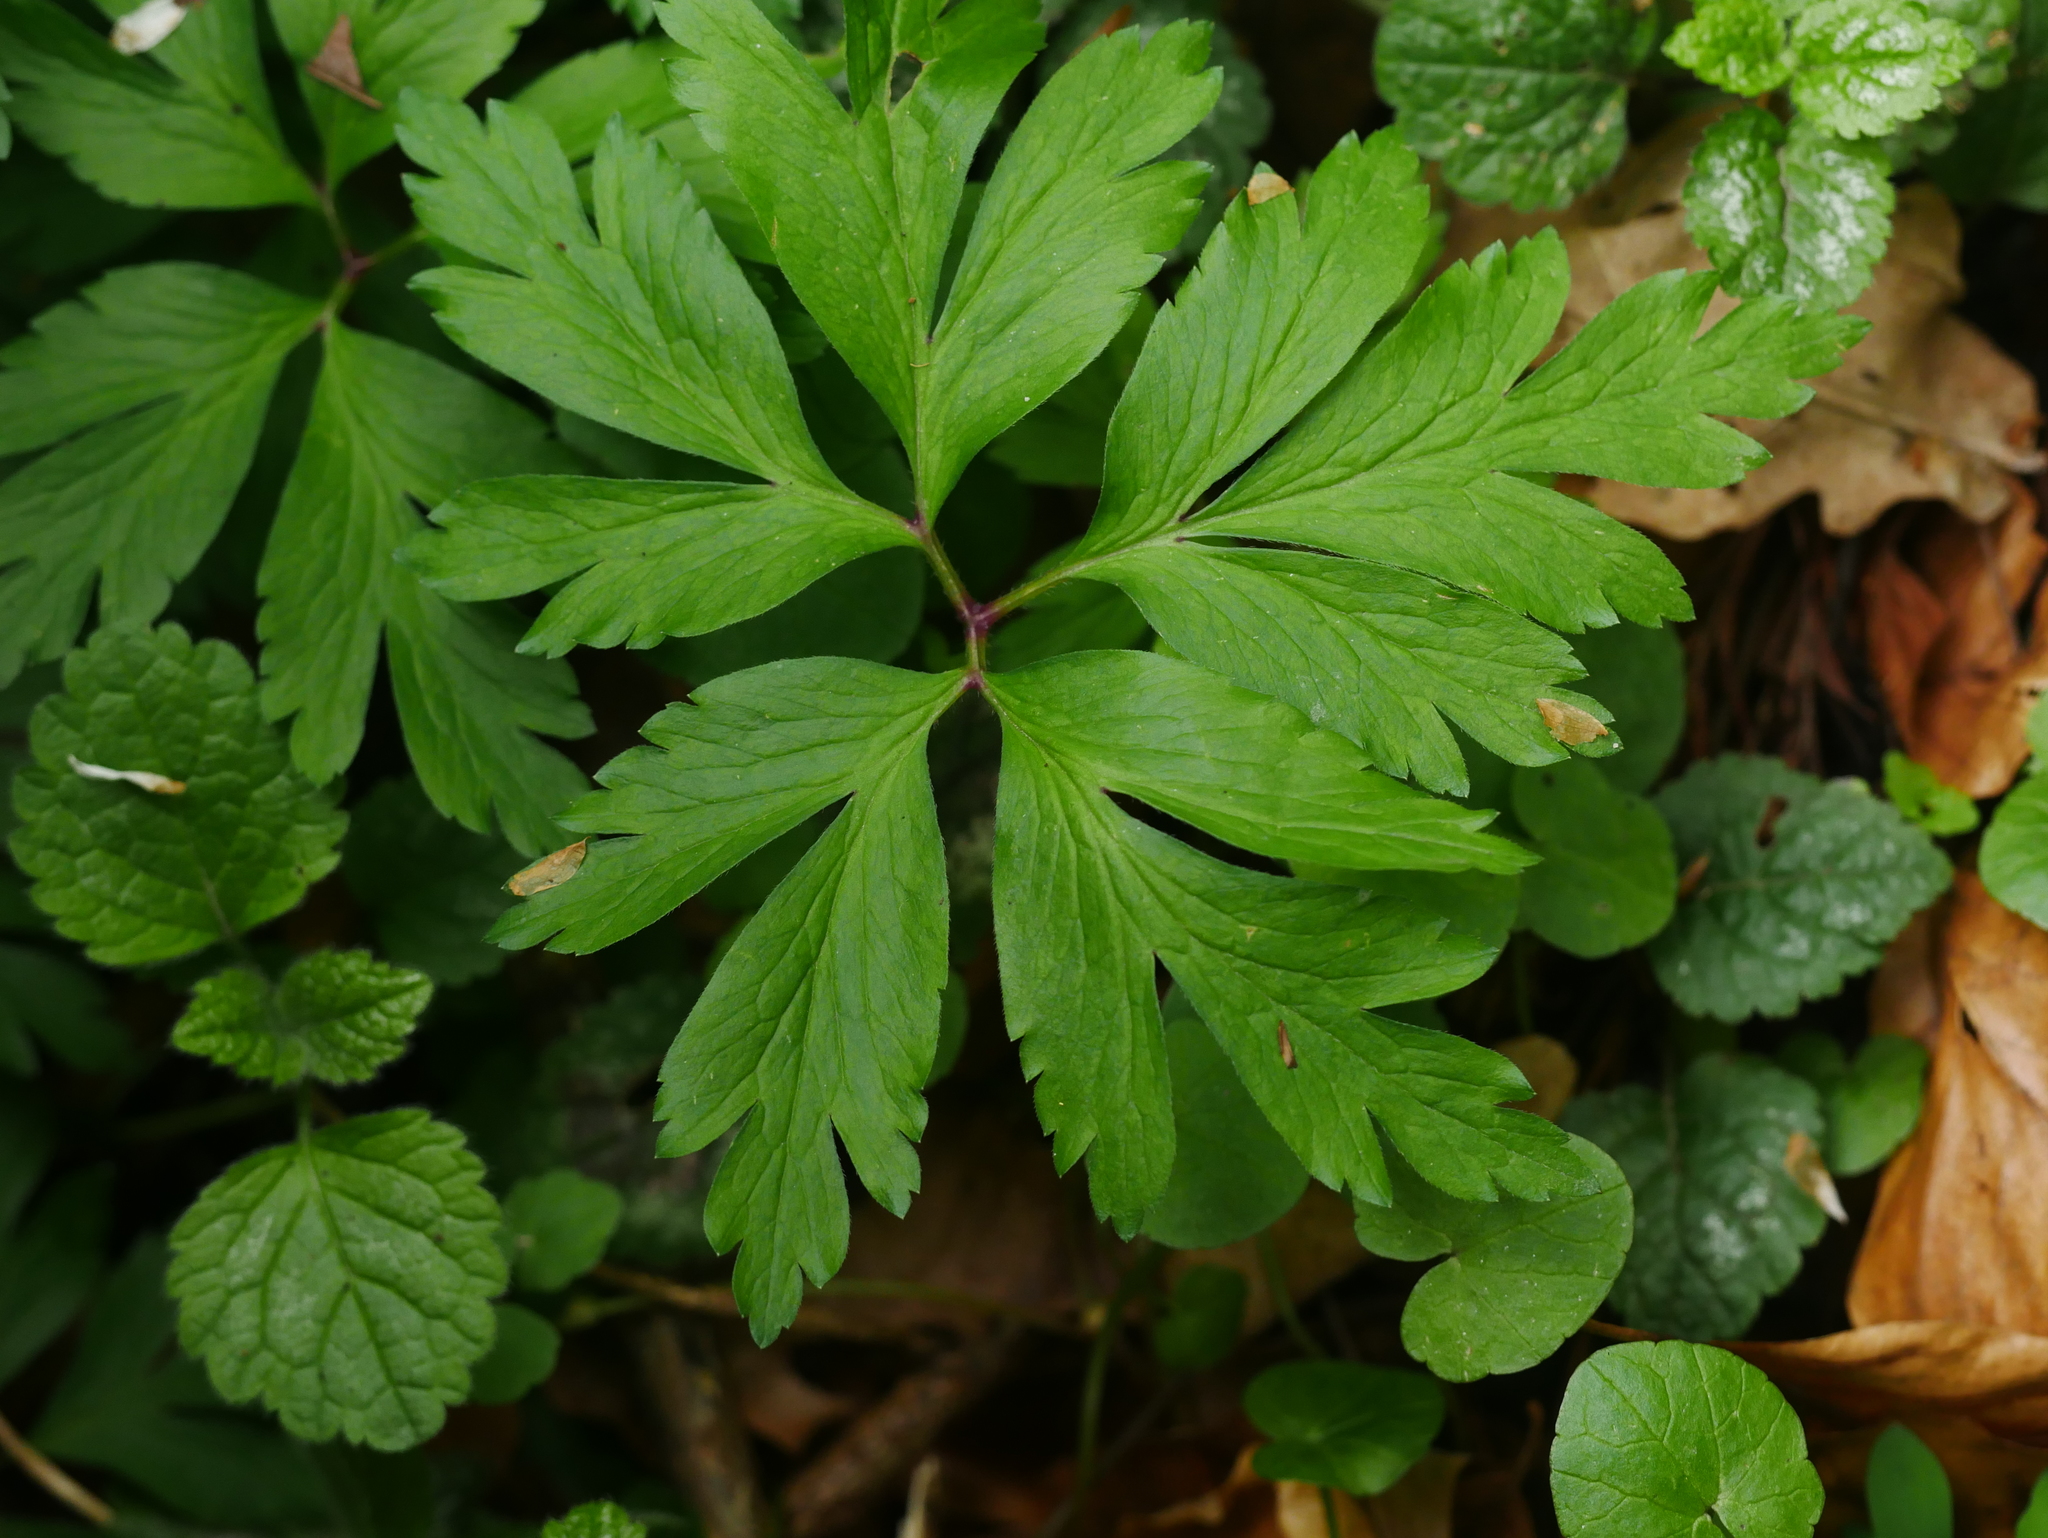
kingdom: Plantae
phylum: Tracheophyta
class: Magnoliopsida
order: Ranunculales
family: Ranunculaceae
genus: Anemone
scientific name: Anemone nemorosa
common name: Wood anemone
